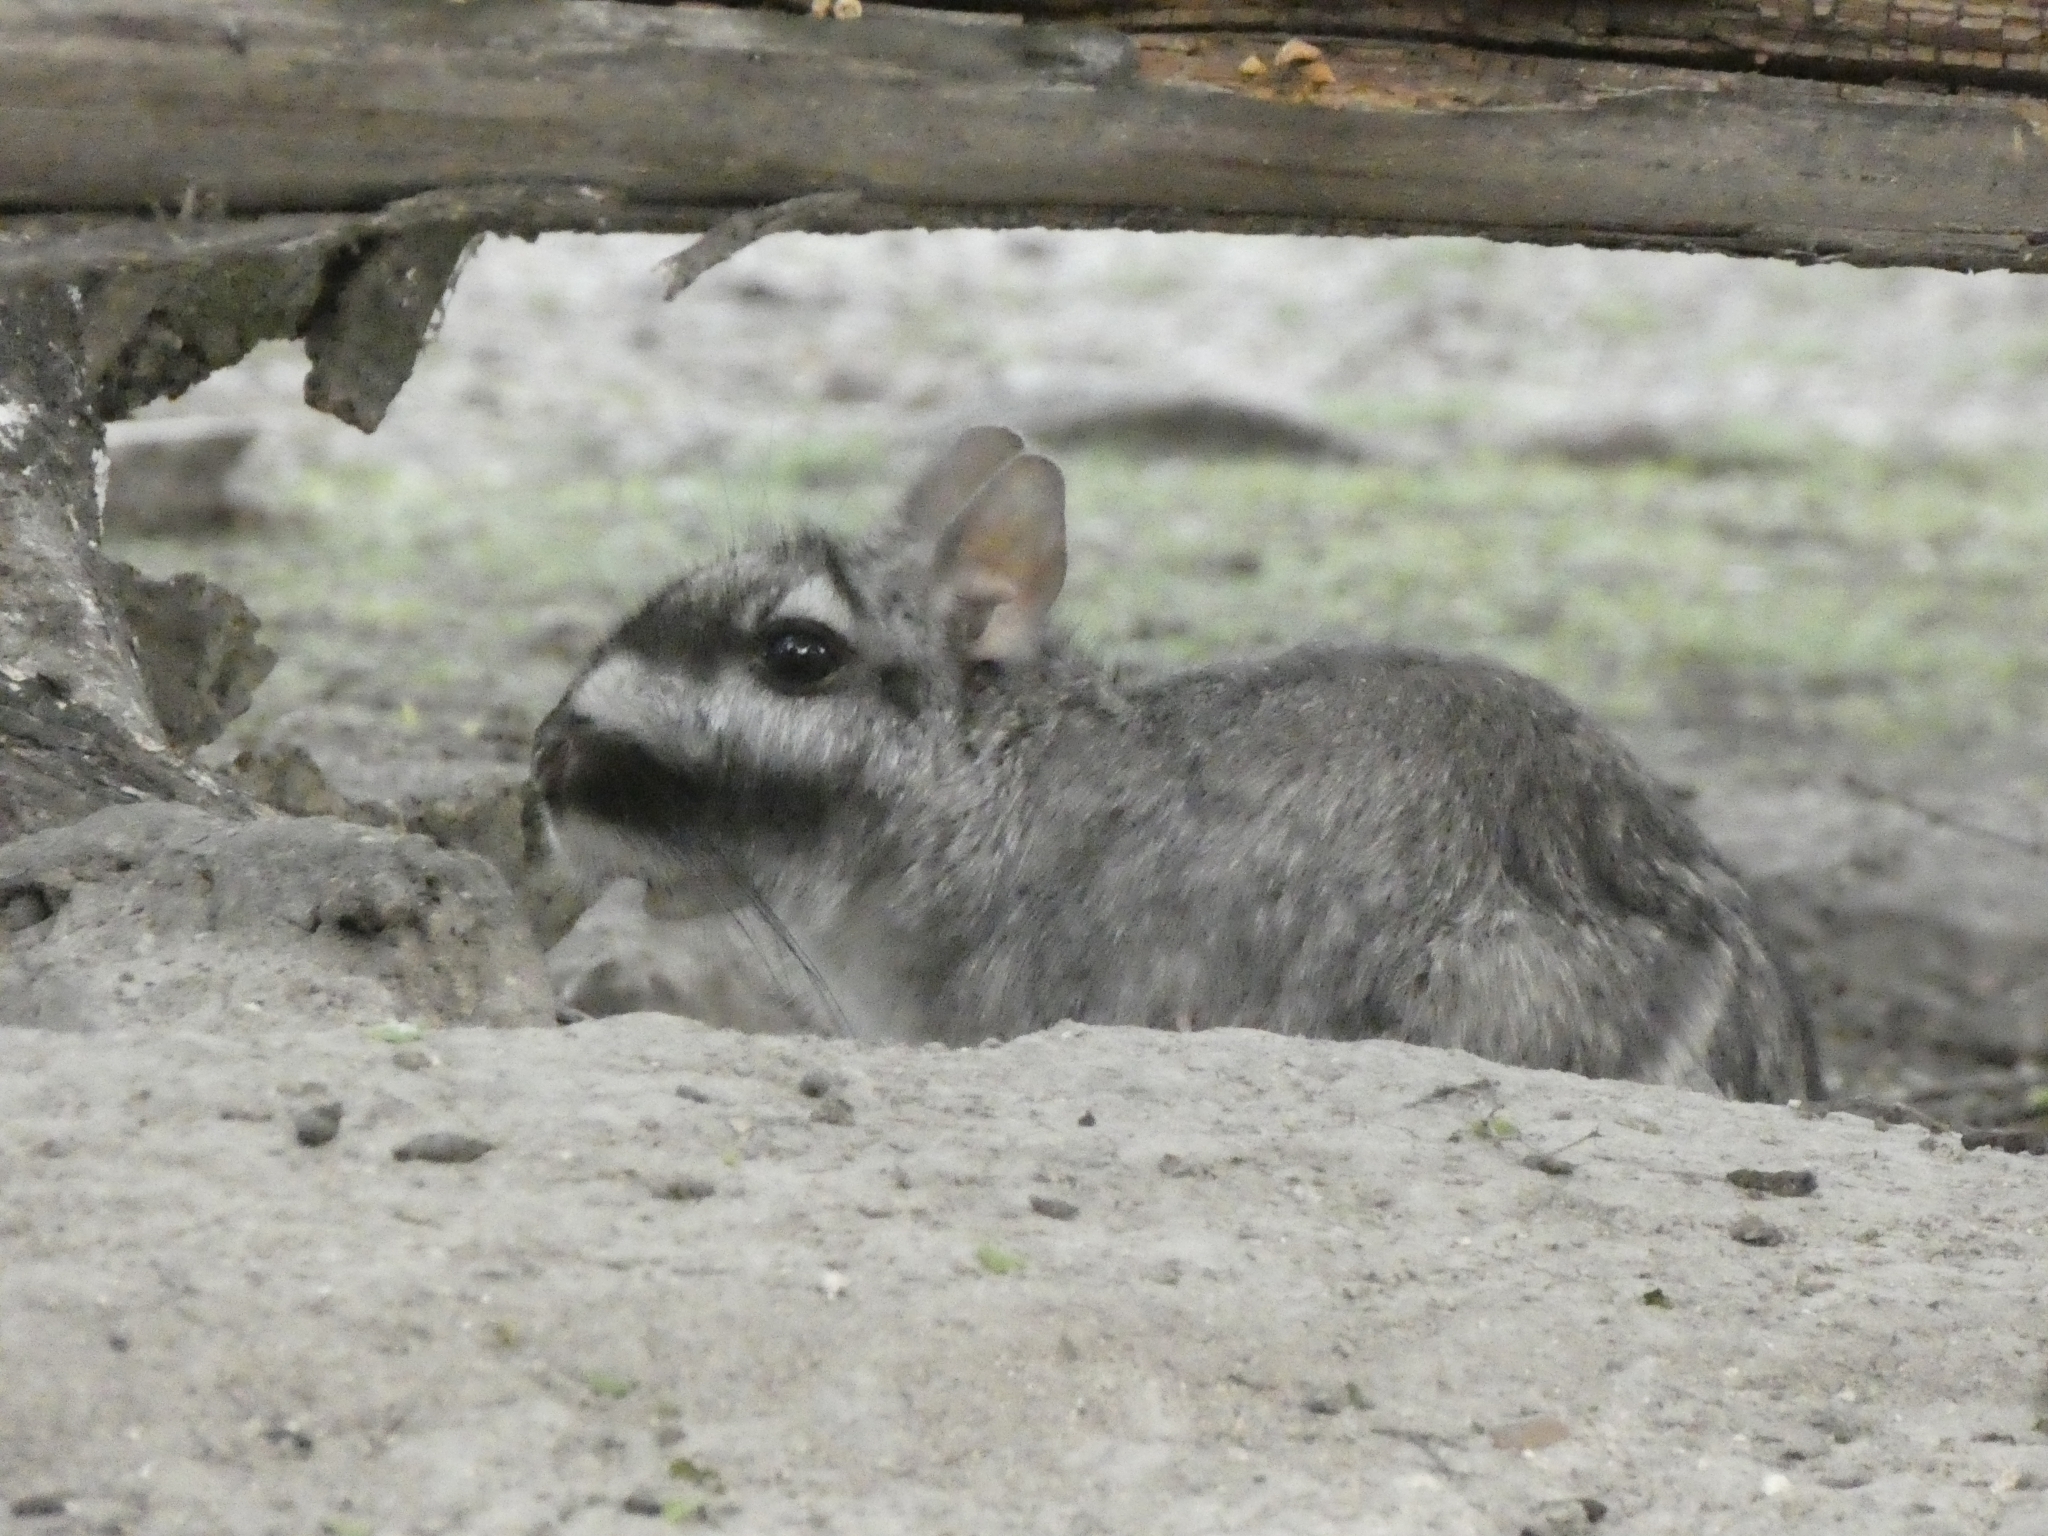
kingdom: Animalia
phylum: Chordata
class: Mammalia
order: Rodentia
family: Chinchillidae
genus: Lagostomus
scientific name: Lagostomus maximus
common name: Plains viscacha
